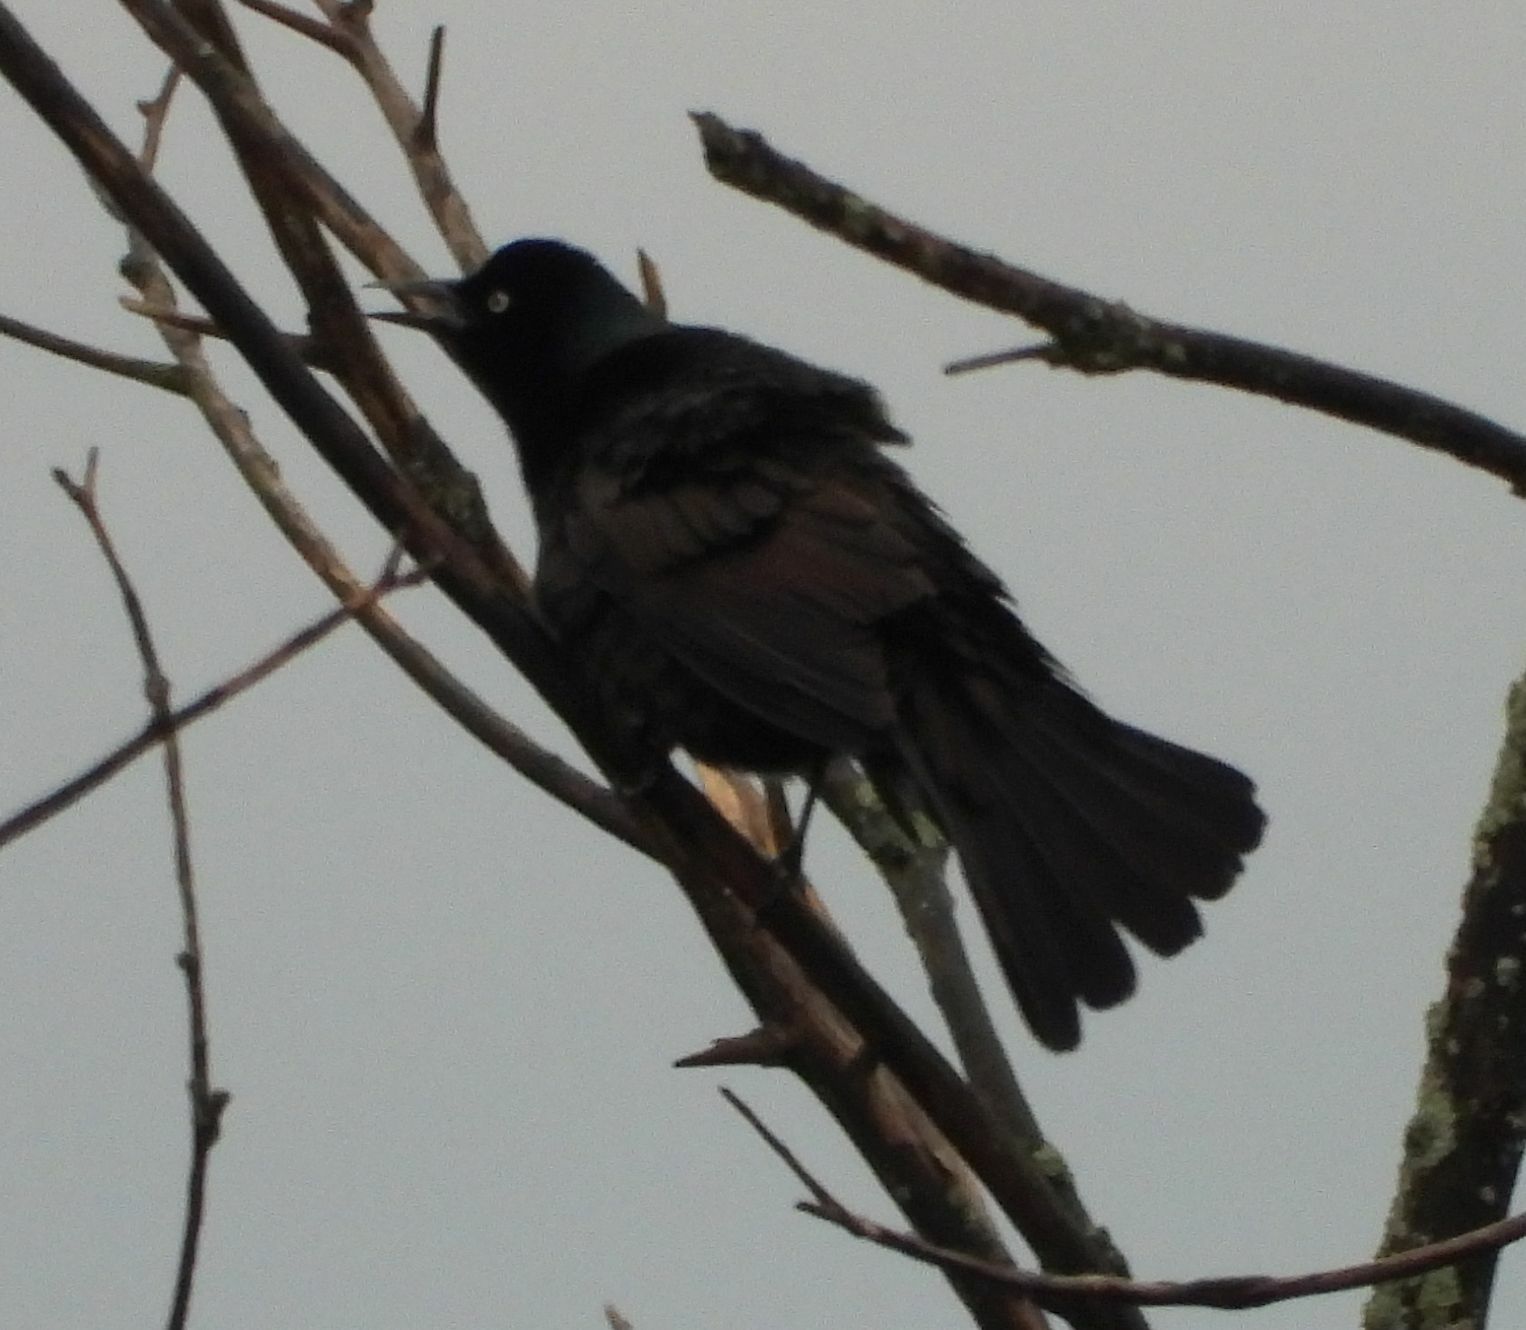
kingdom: Animalia
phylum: Chordata
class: Aves
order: Passeriformes
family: Icteridae
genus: Quiscalus
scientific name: Quiscalus quiscula
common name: Common grackle
